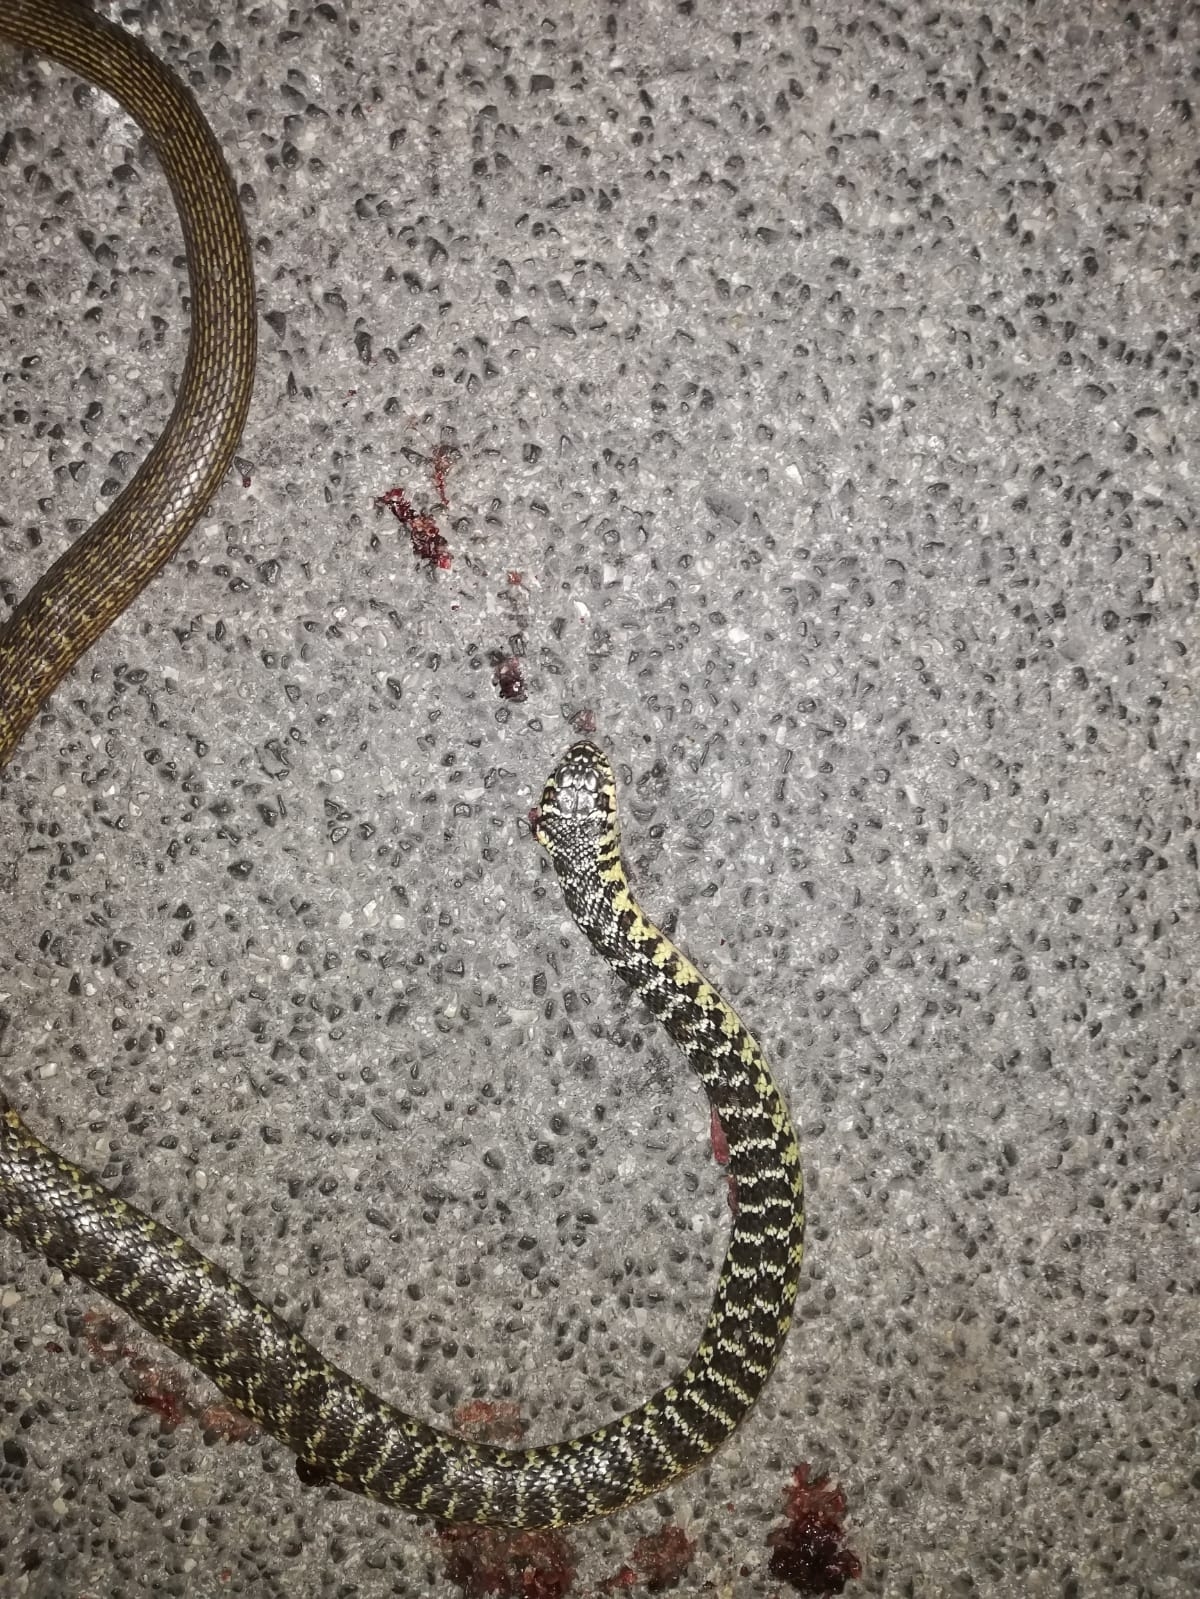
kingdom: Animalia
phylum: Chordata
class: Squamata
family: Colubridae
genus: Hierophis
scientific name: Hierophis viridiflavus
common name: Green whip snake
